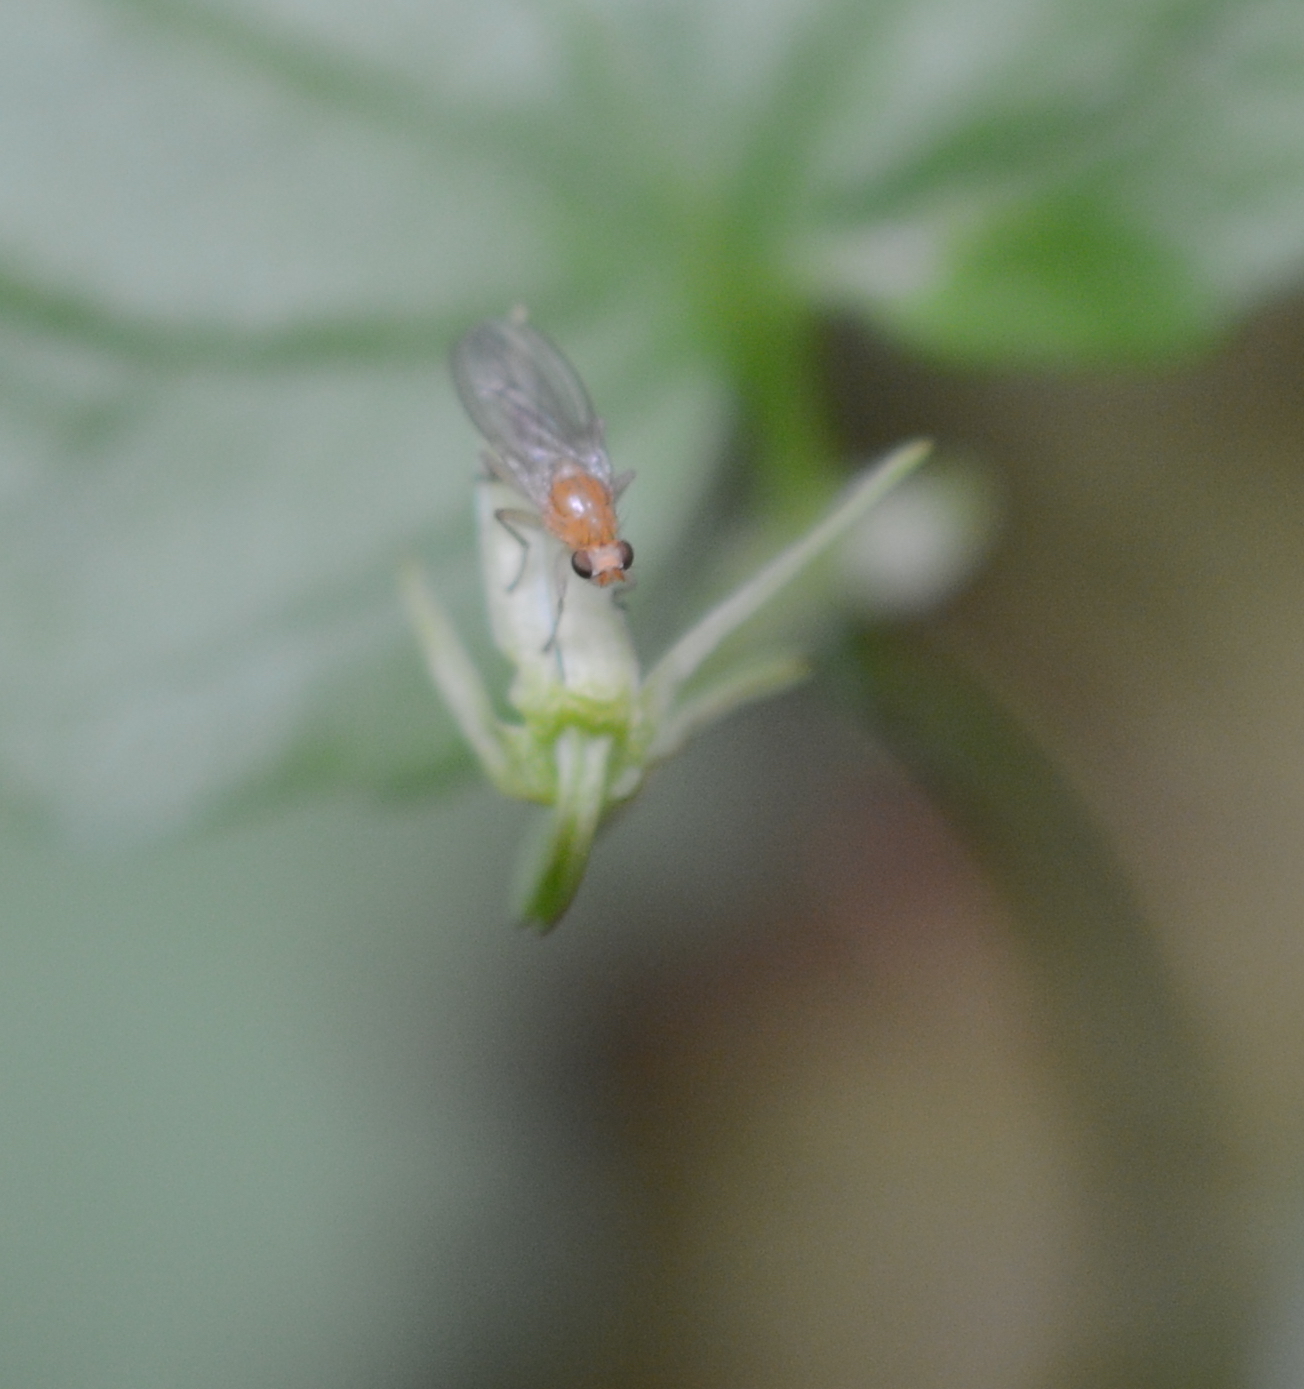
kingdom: Animalia
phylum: Arthropoda
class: Insecta
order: Diptera
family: Heleomyzidae
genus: Allophyla
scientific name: Allophyla laevis
